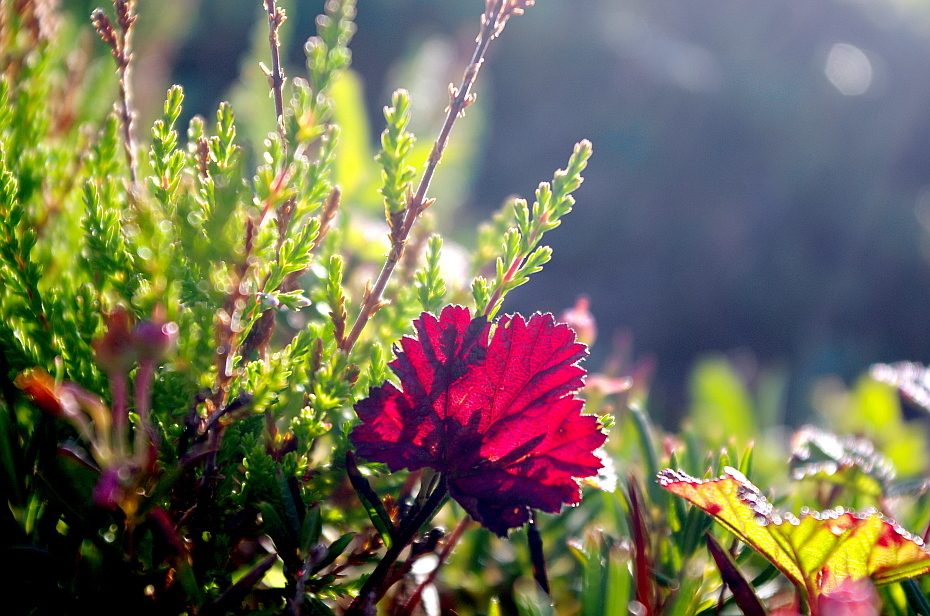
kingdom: Plantae
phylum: Tracheophyta
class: Magnoliopsida
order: Ericales
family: Ericaceae
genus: Calluna
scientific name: Calluna vulgaris
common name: Heather
